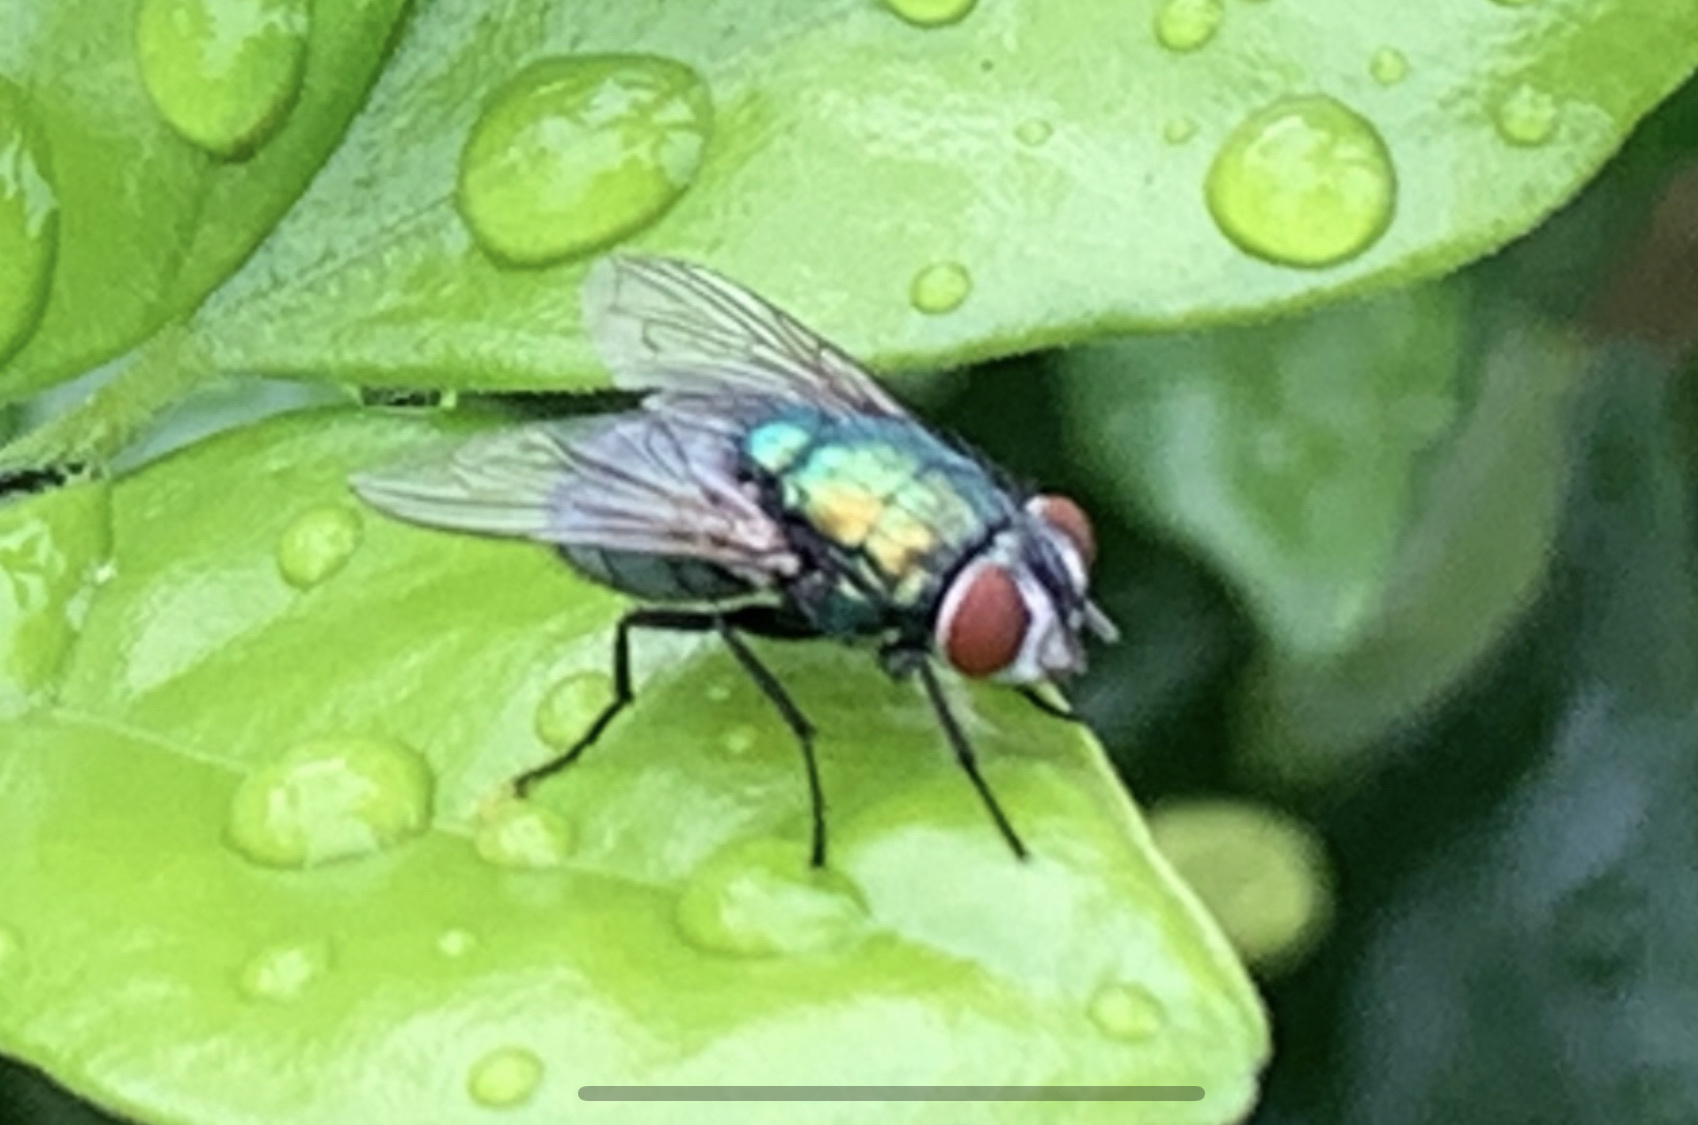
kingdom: Animalia
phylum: Arthropoda
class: Insecta
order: Diptera
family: Calliphoridae
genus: Lucilia
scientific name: Lucilia
